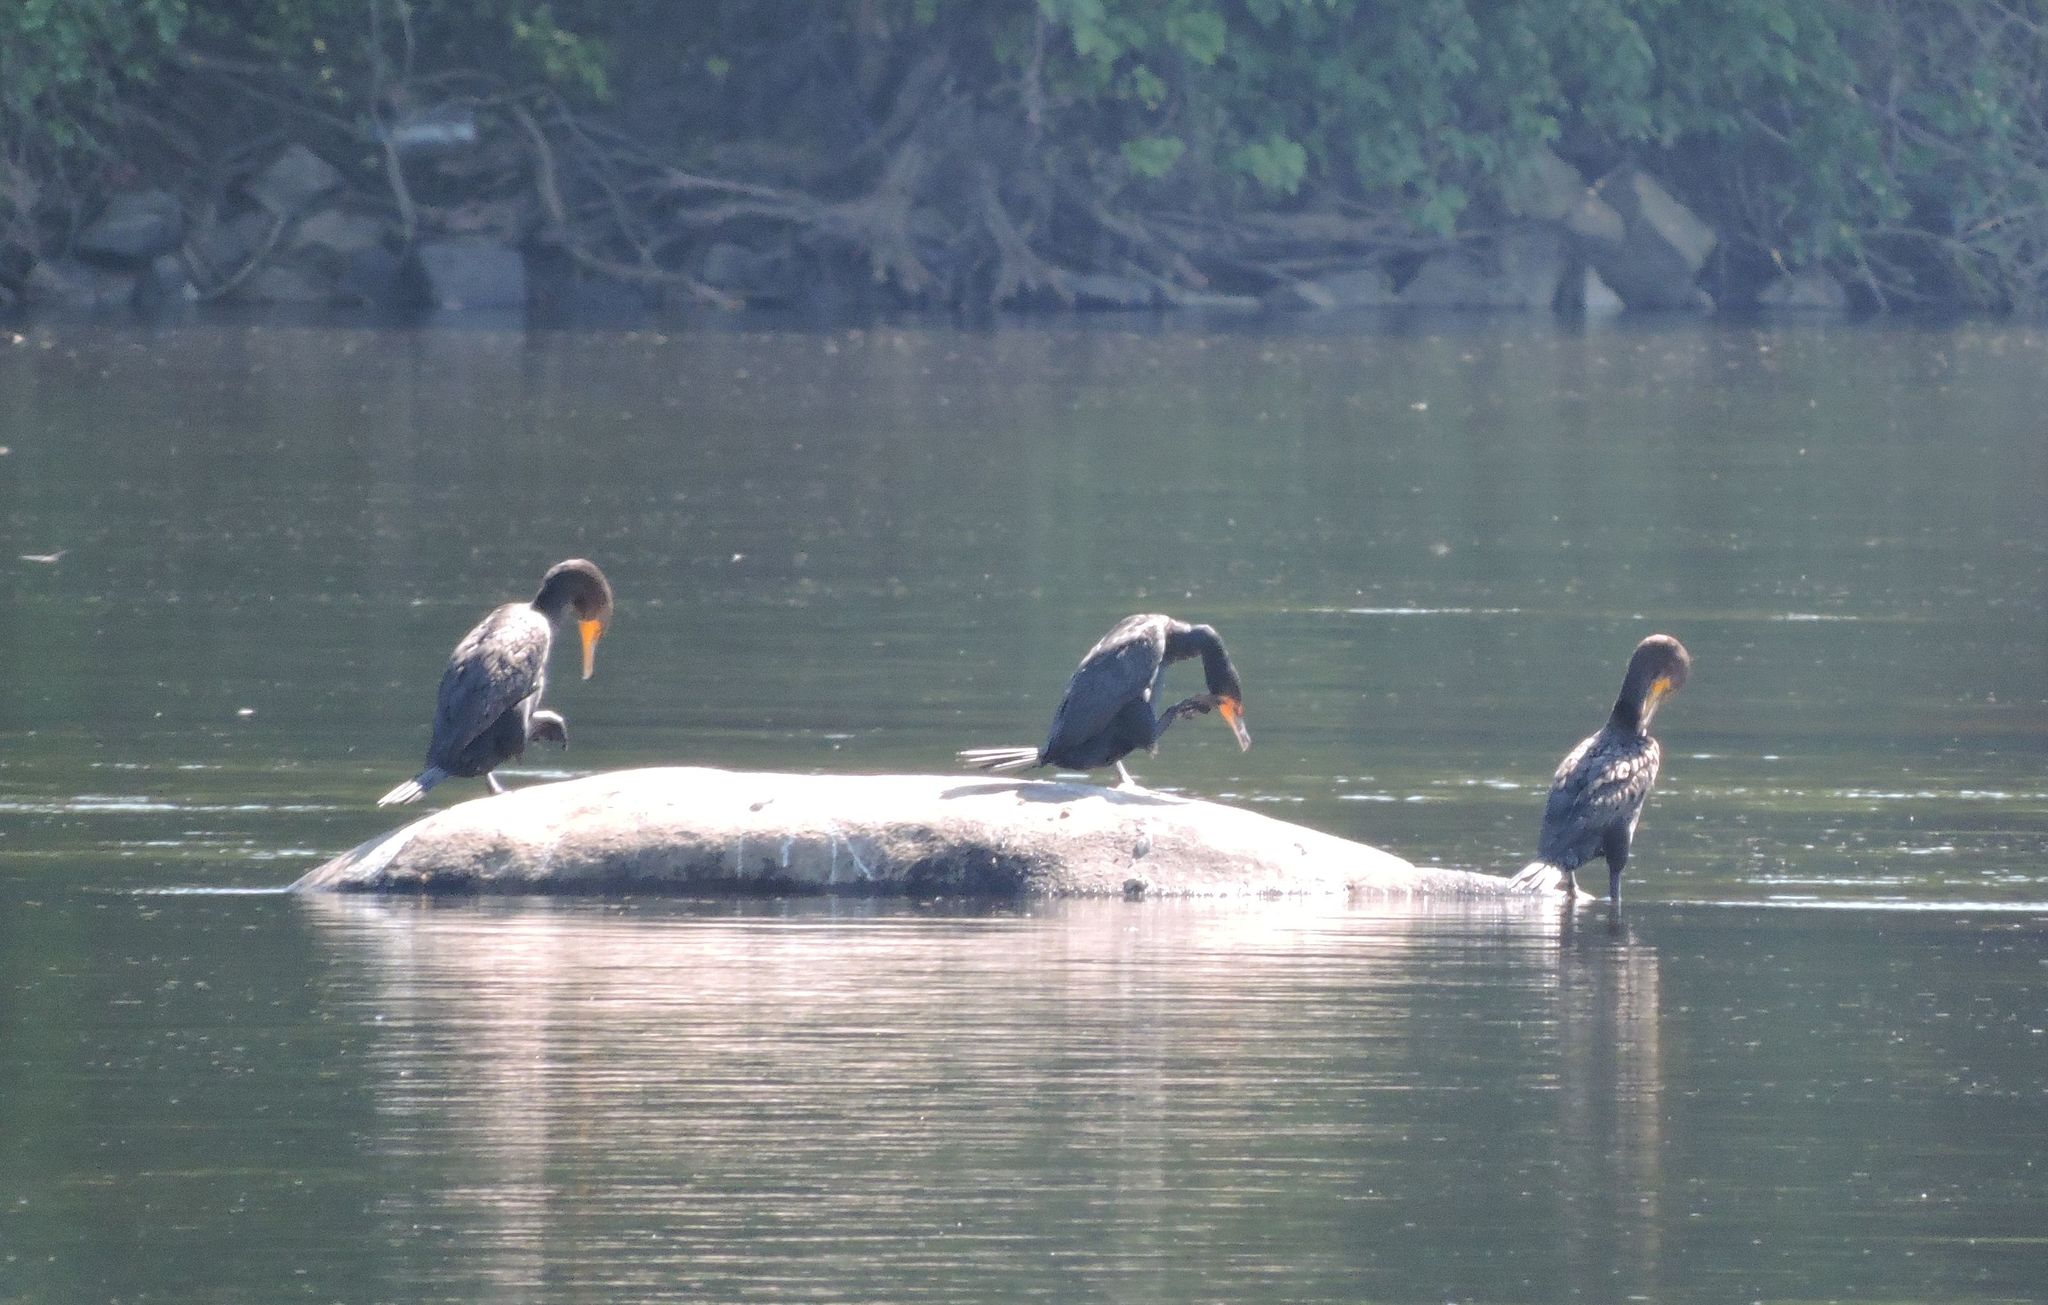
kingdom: Animalia
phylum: Chordata
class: Aves
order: Suliformes
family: Phalacrocoracidae
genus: Phalacrocorax
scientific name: Phalacrocorax auritus
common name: Double-crested cormorant
